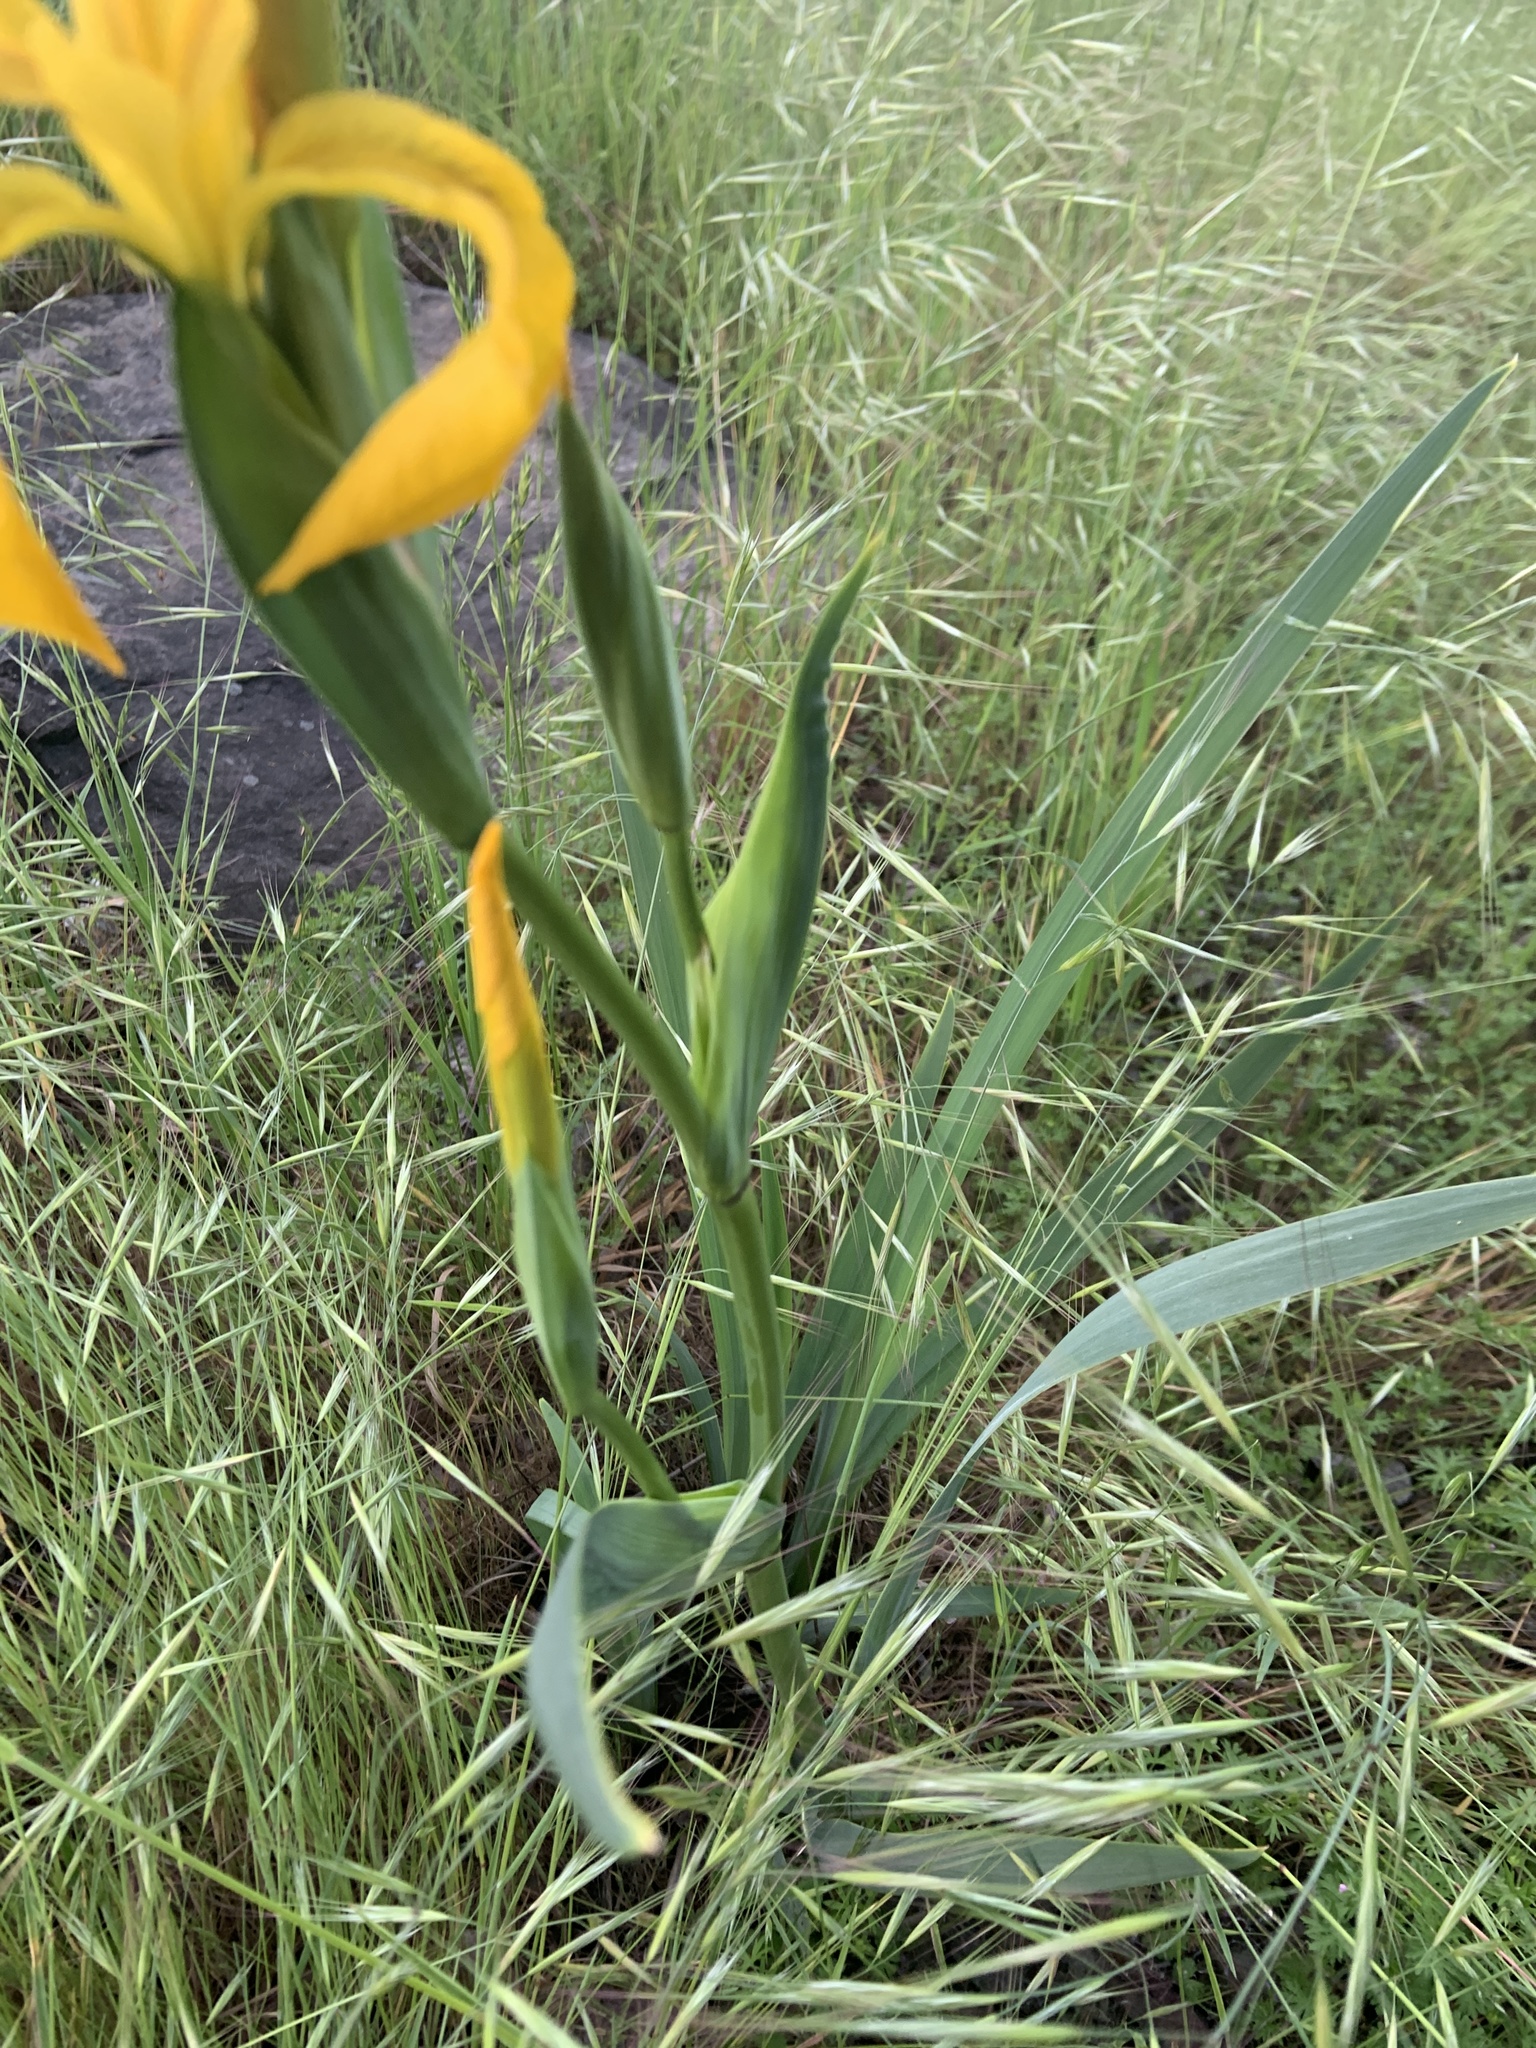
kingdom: Plantae
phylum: Tracheophyta
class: Liliopsida
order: Asparagales
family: Iridaceae
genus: Iris
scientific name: Iris pseudacorus
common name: Yellow flag
